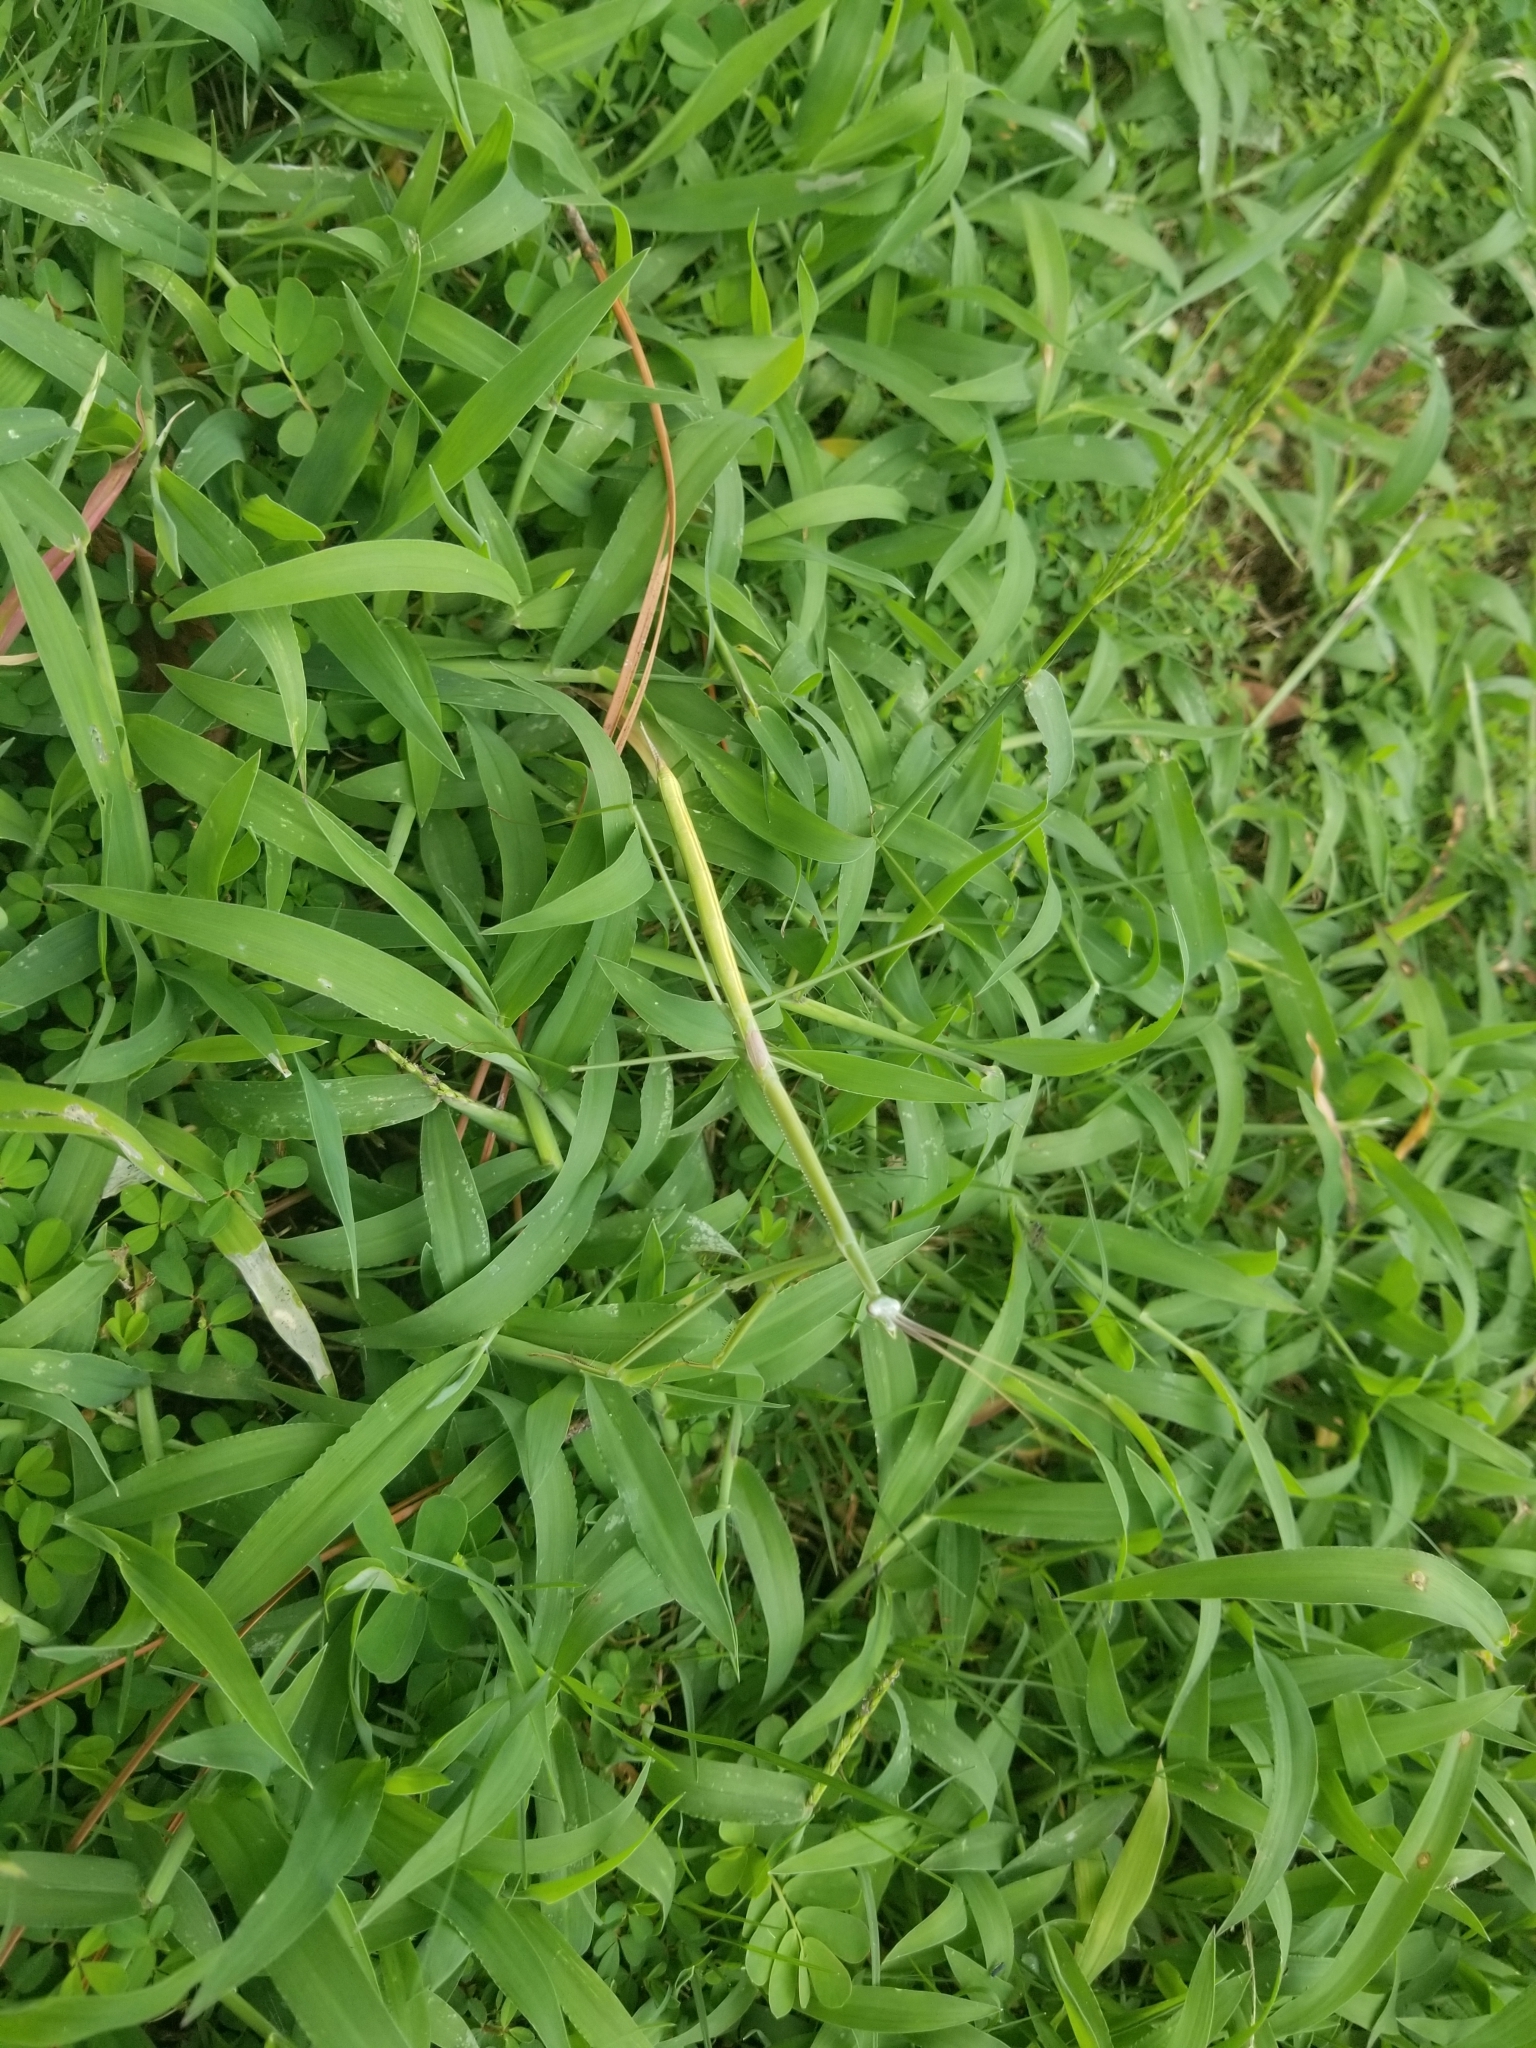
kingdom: Animalia
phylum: Arthropoda
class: Insecta
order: Mantodea
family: Coptopterygidae
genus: Brunneria
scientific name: Brunneria borealis
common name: Mantis
